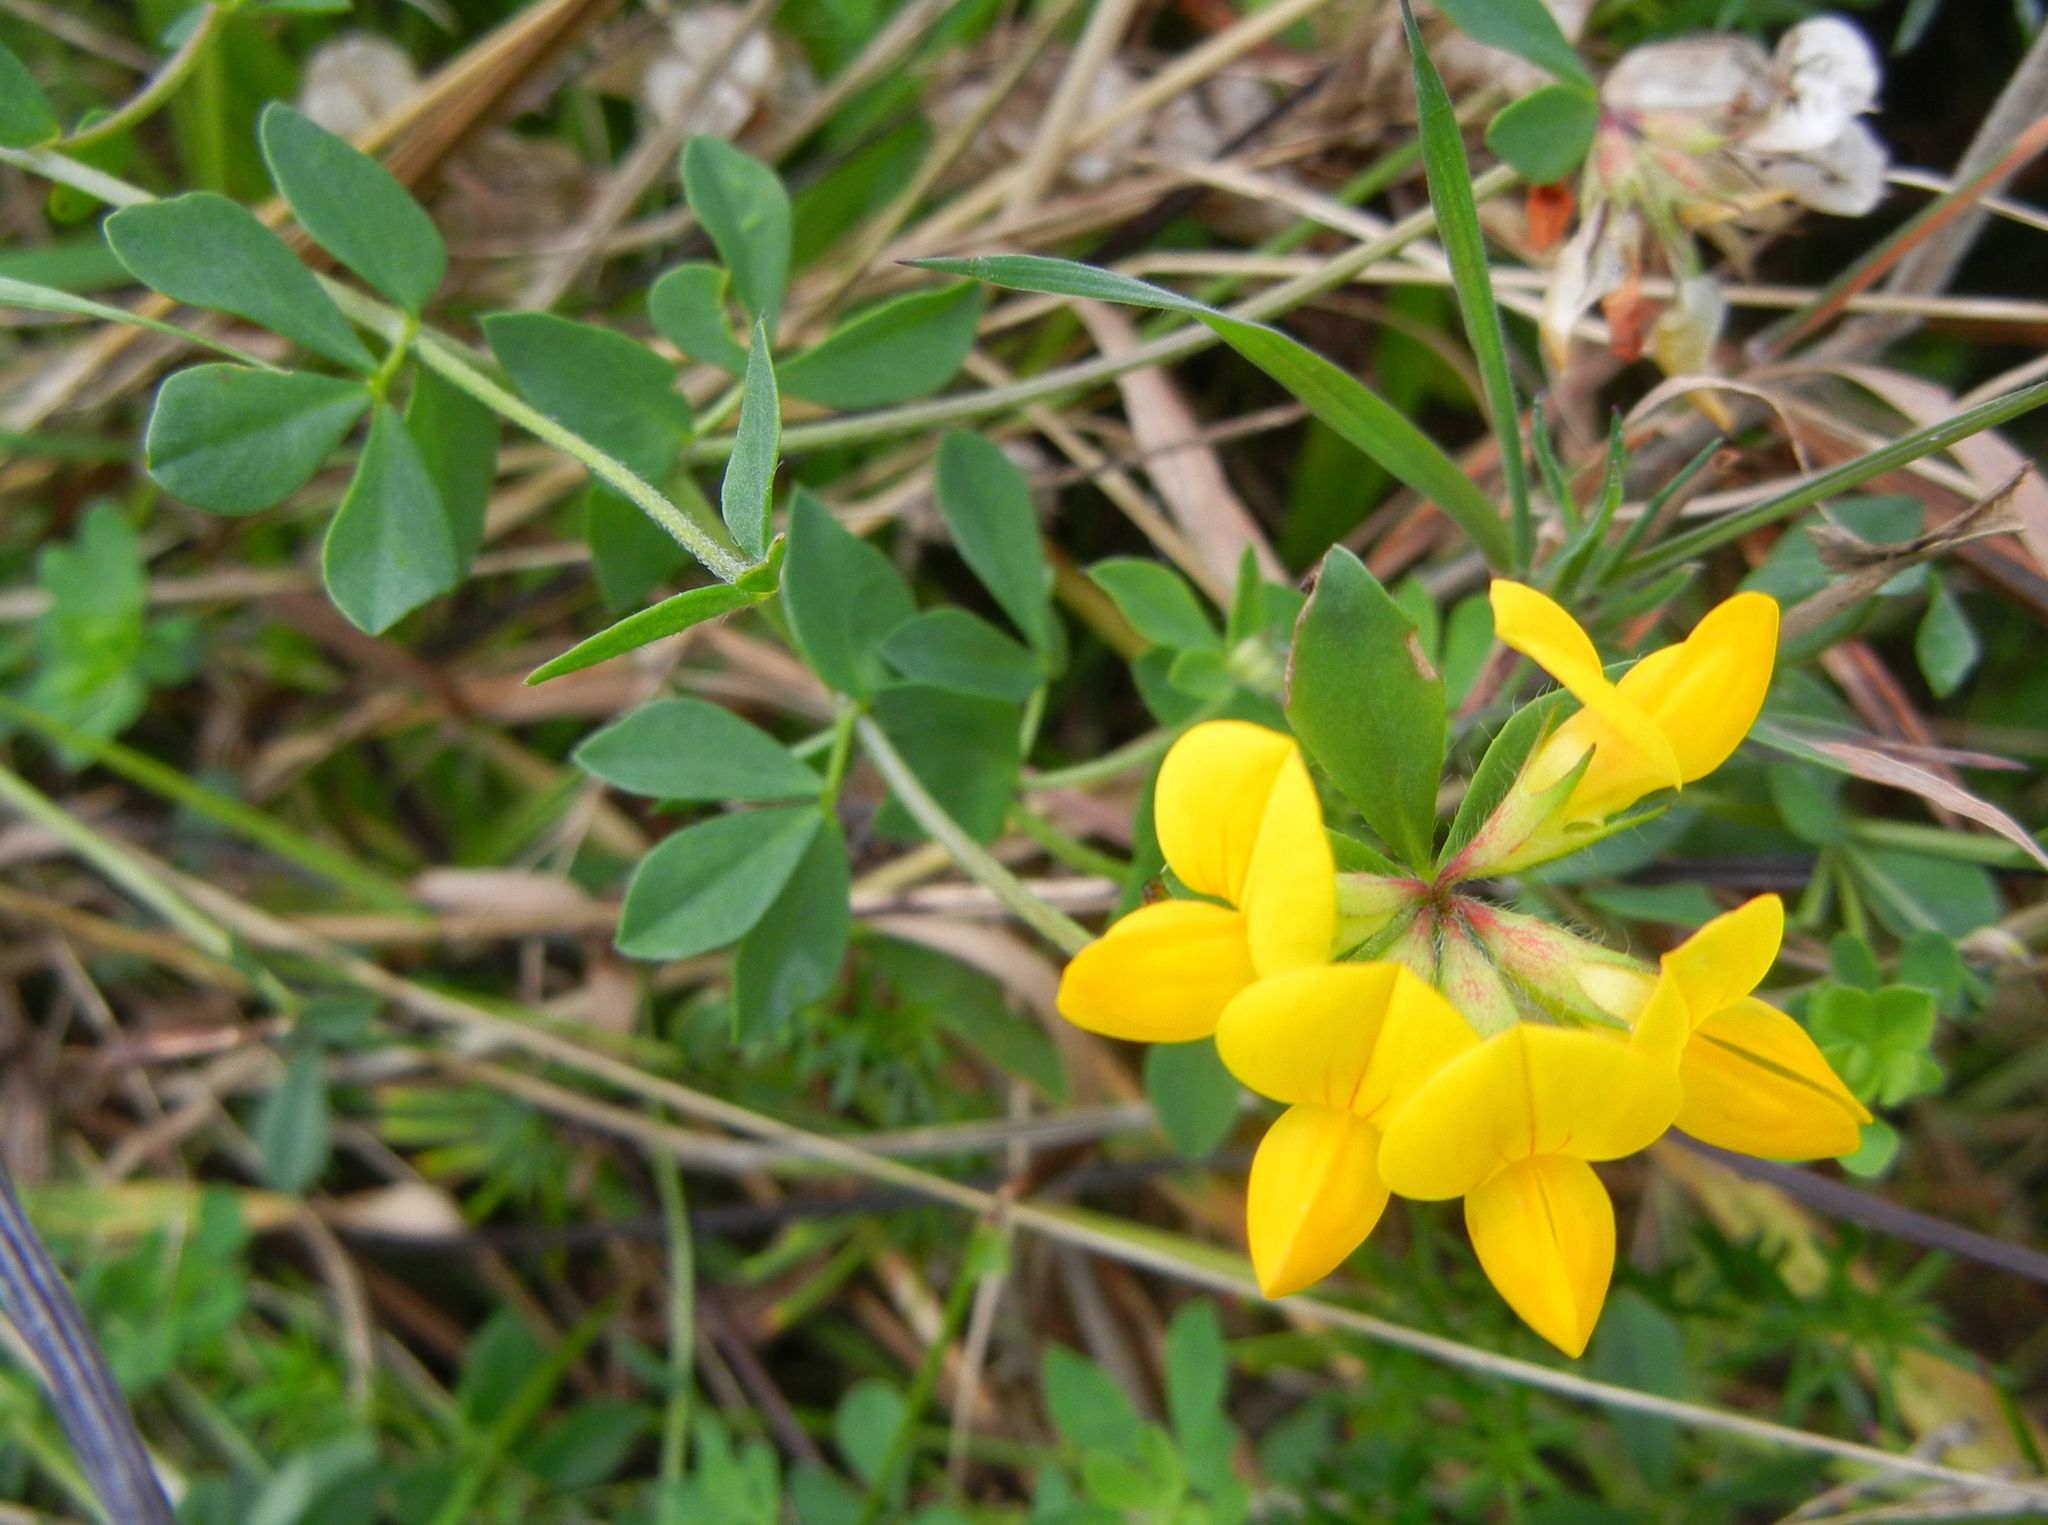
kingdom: Plantae
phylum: Tracheophyta
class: Magnoliopsida
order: Fabales
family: Fabaceae
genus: Lotus
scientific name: Lotus corniculatus
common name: Common bird's-foot-trefoil
